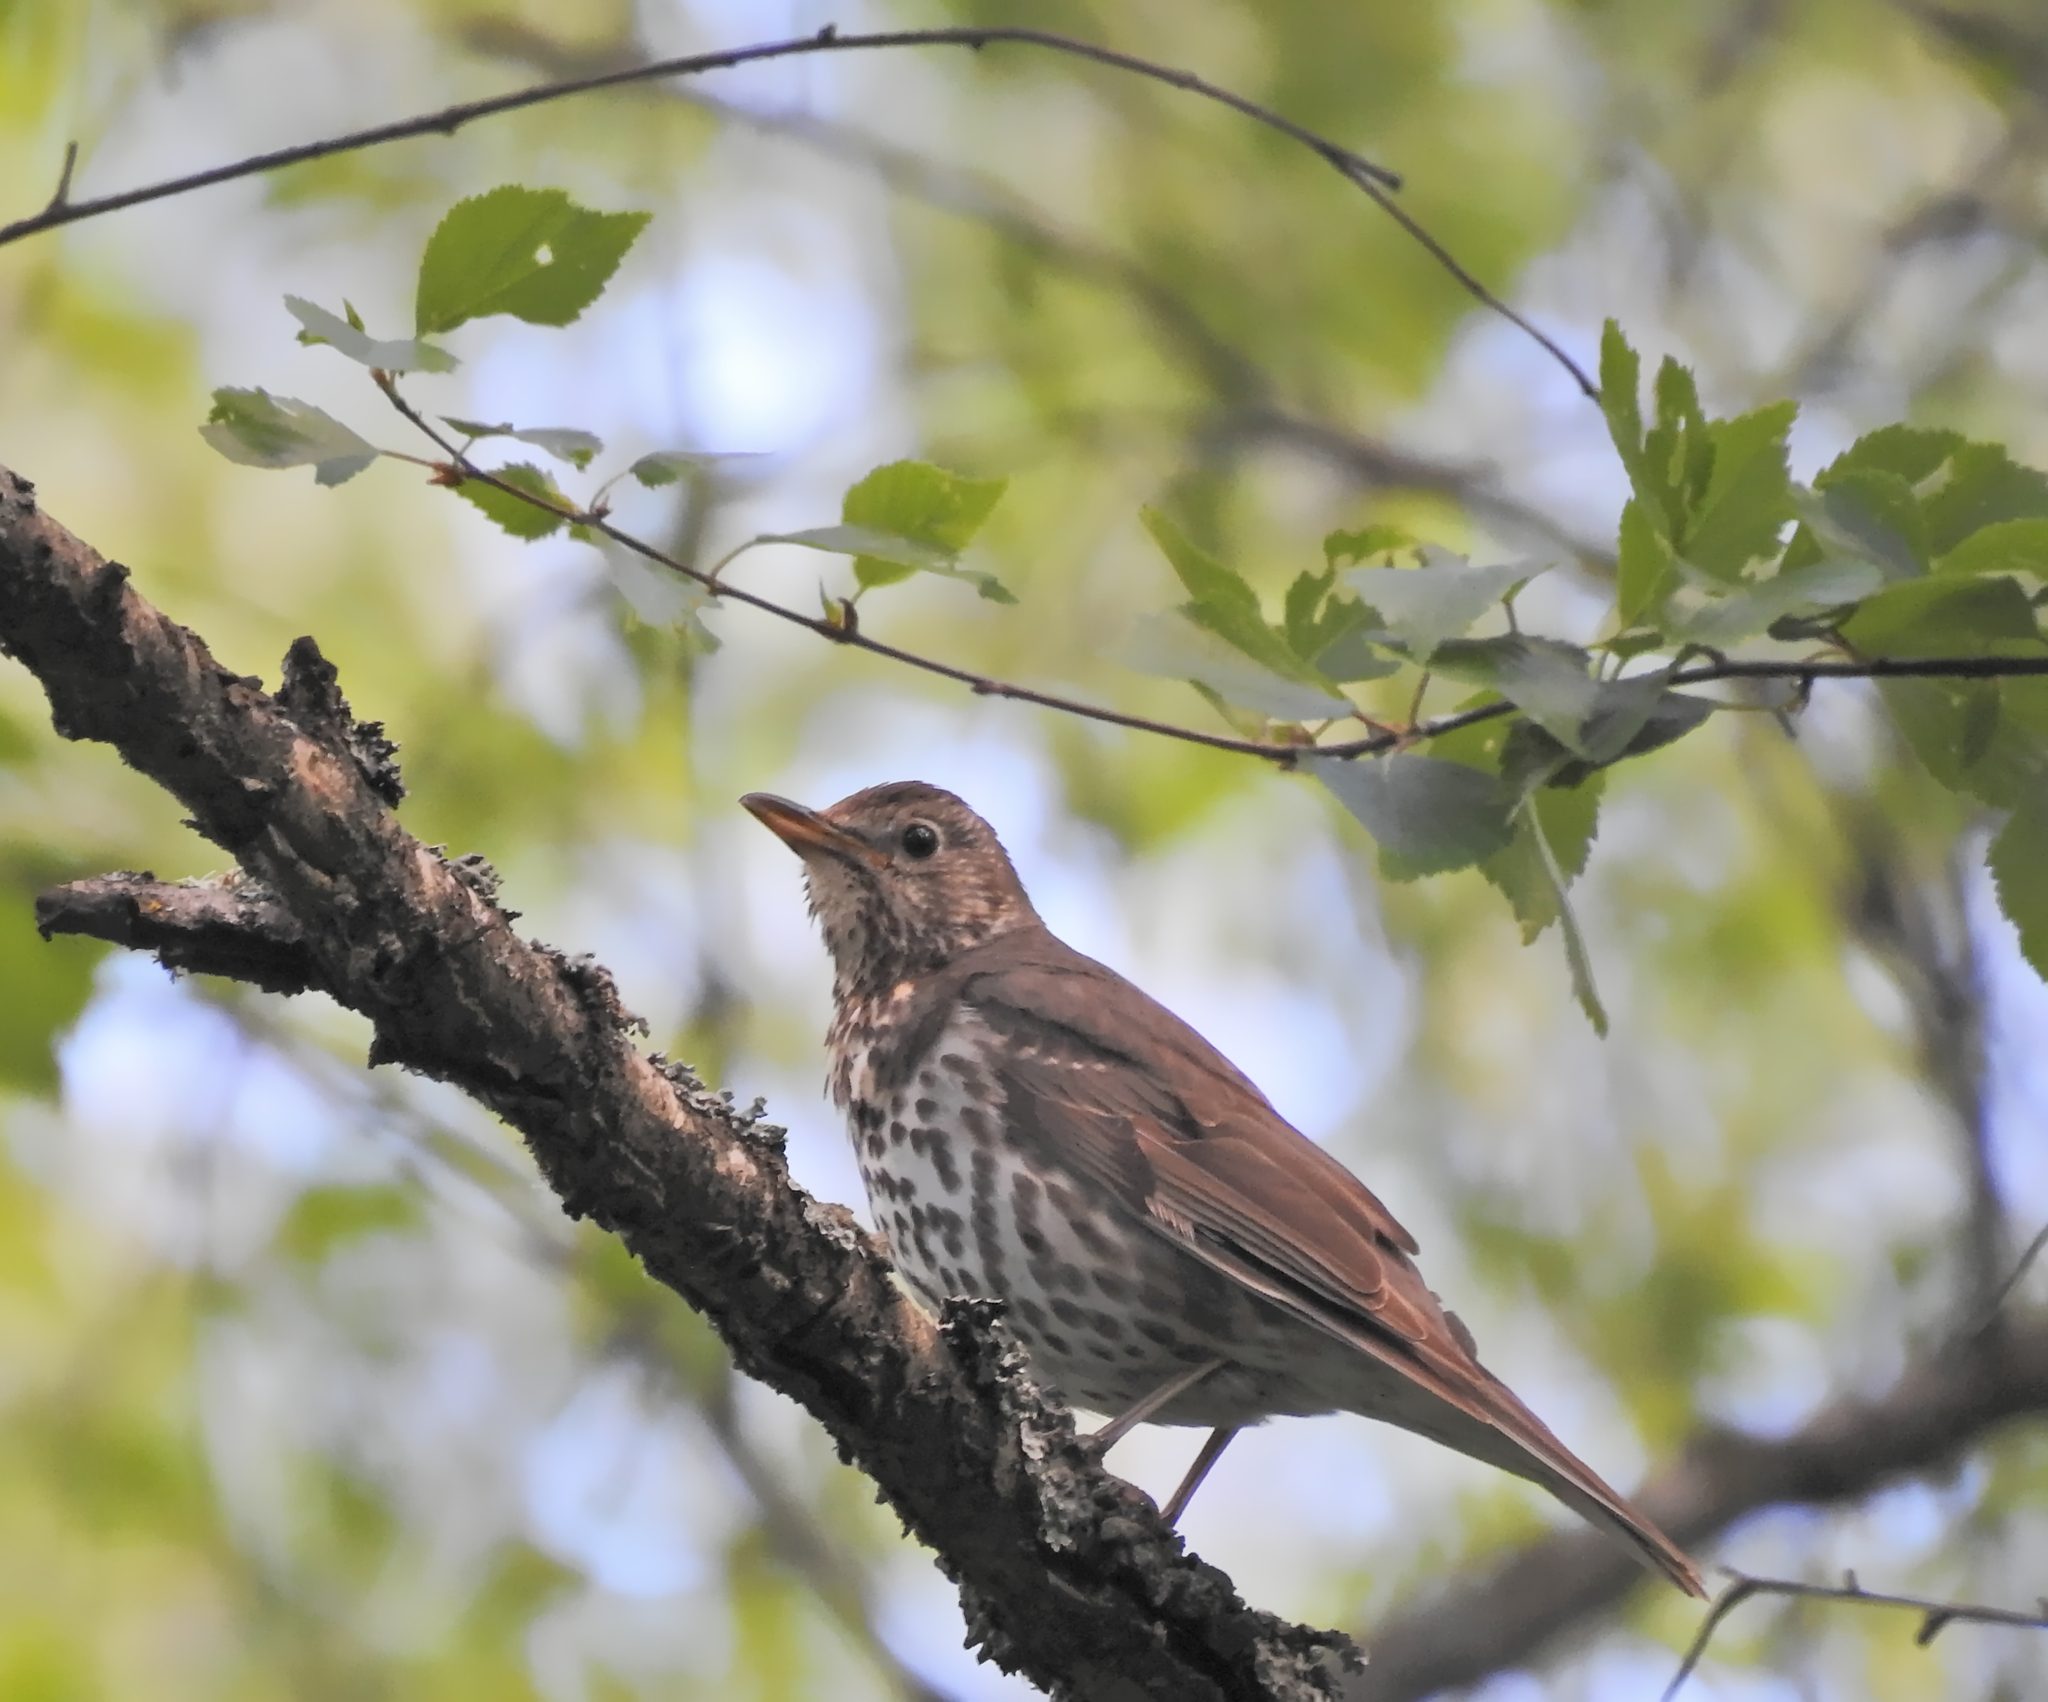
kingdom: Animalia
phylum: Chordata
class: Aves
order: Passeriformes
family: Turdidae
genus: Turdus
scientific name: Turdus philomelos
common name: Song thrush
